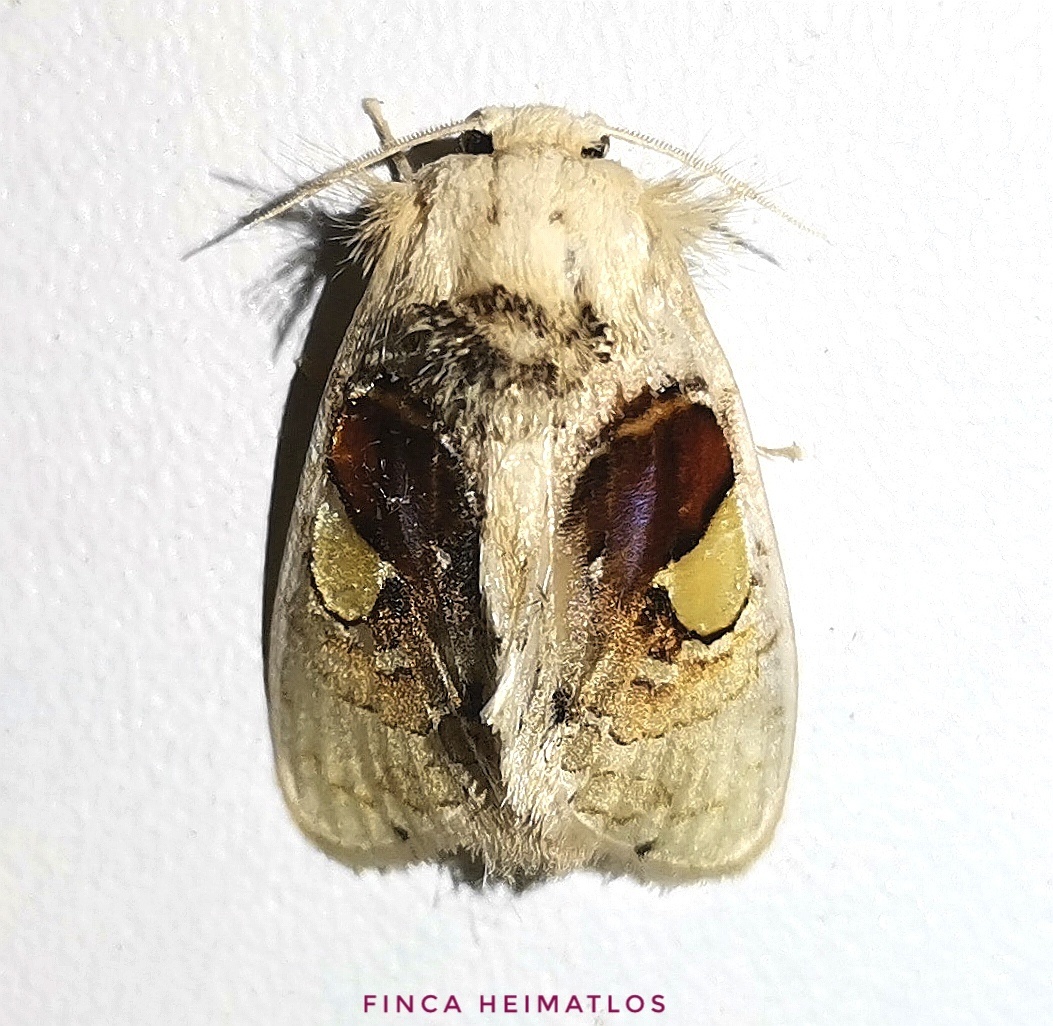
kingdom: Animalia
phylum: Arthropoda
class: Insecta
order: Lepidoptera
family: Psychidae
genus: Arrhenophanes
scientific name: Arrhenophanes perspicilla
